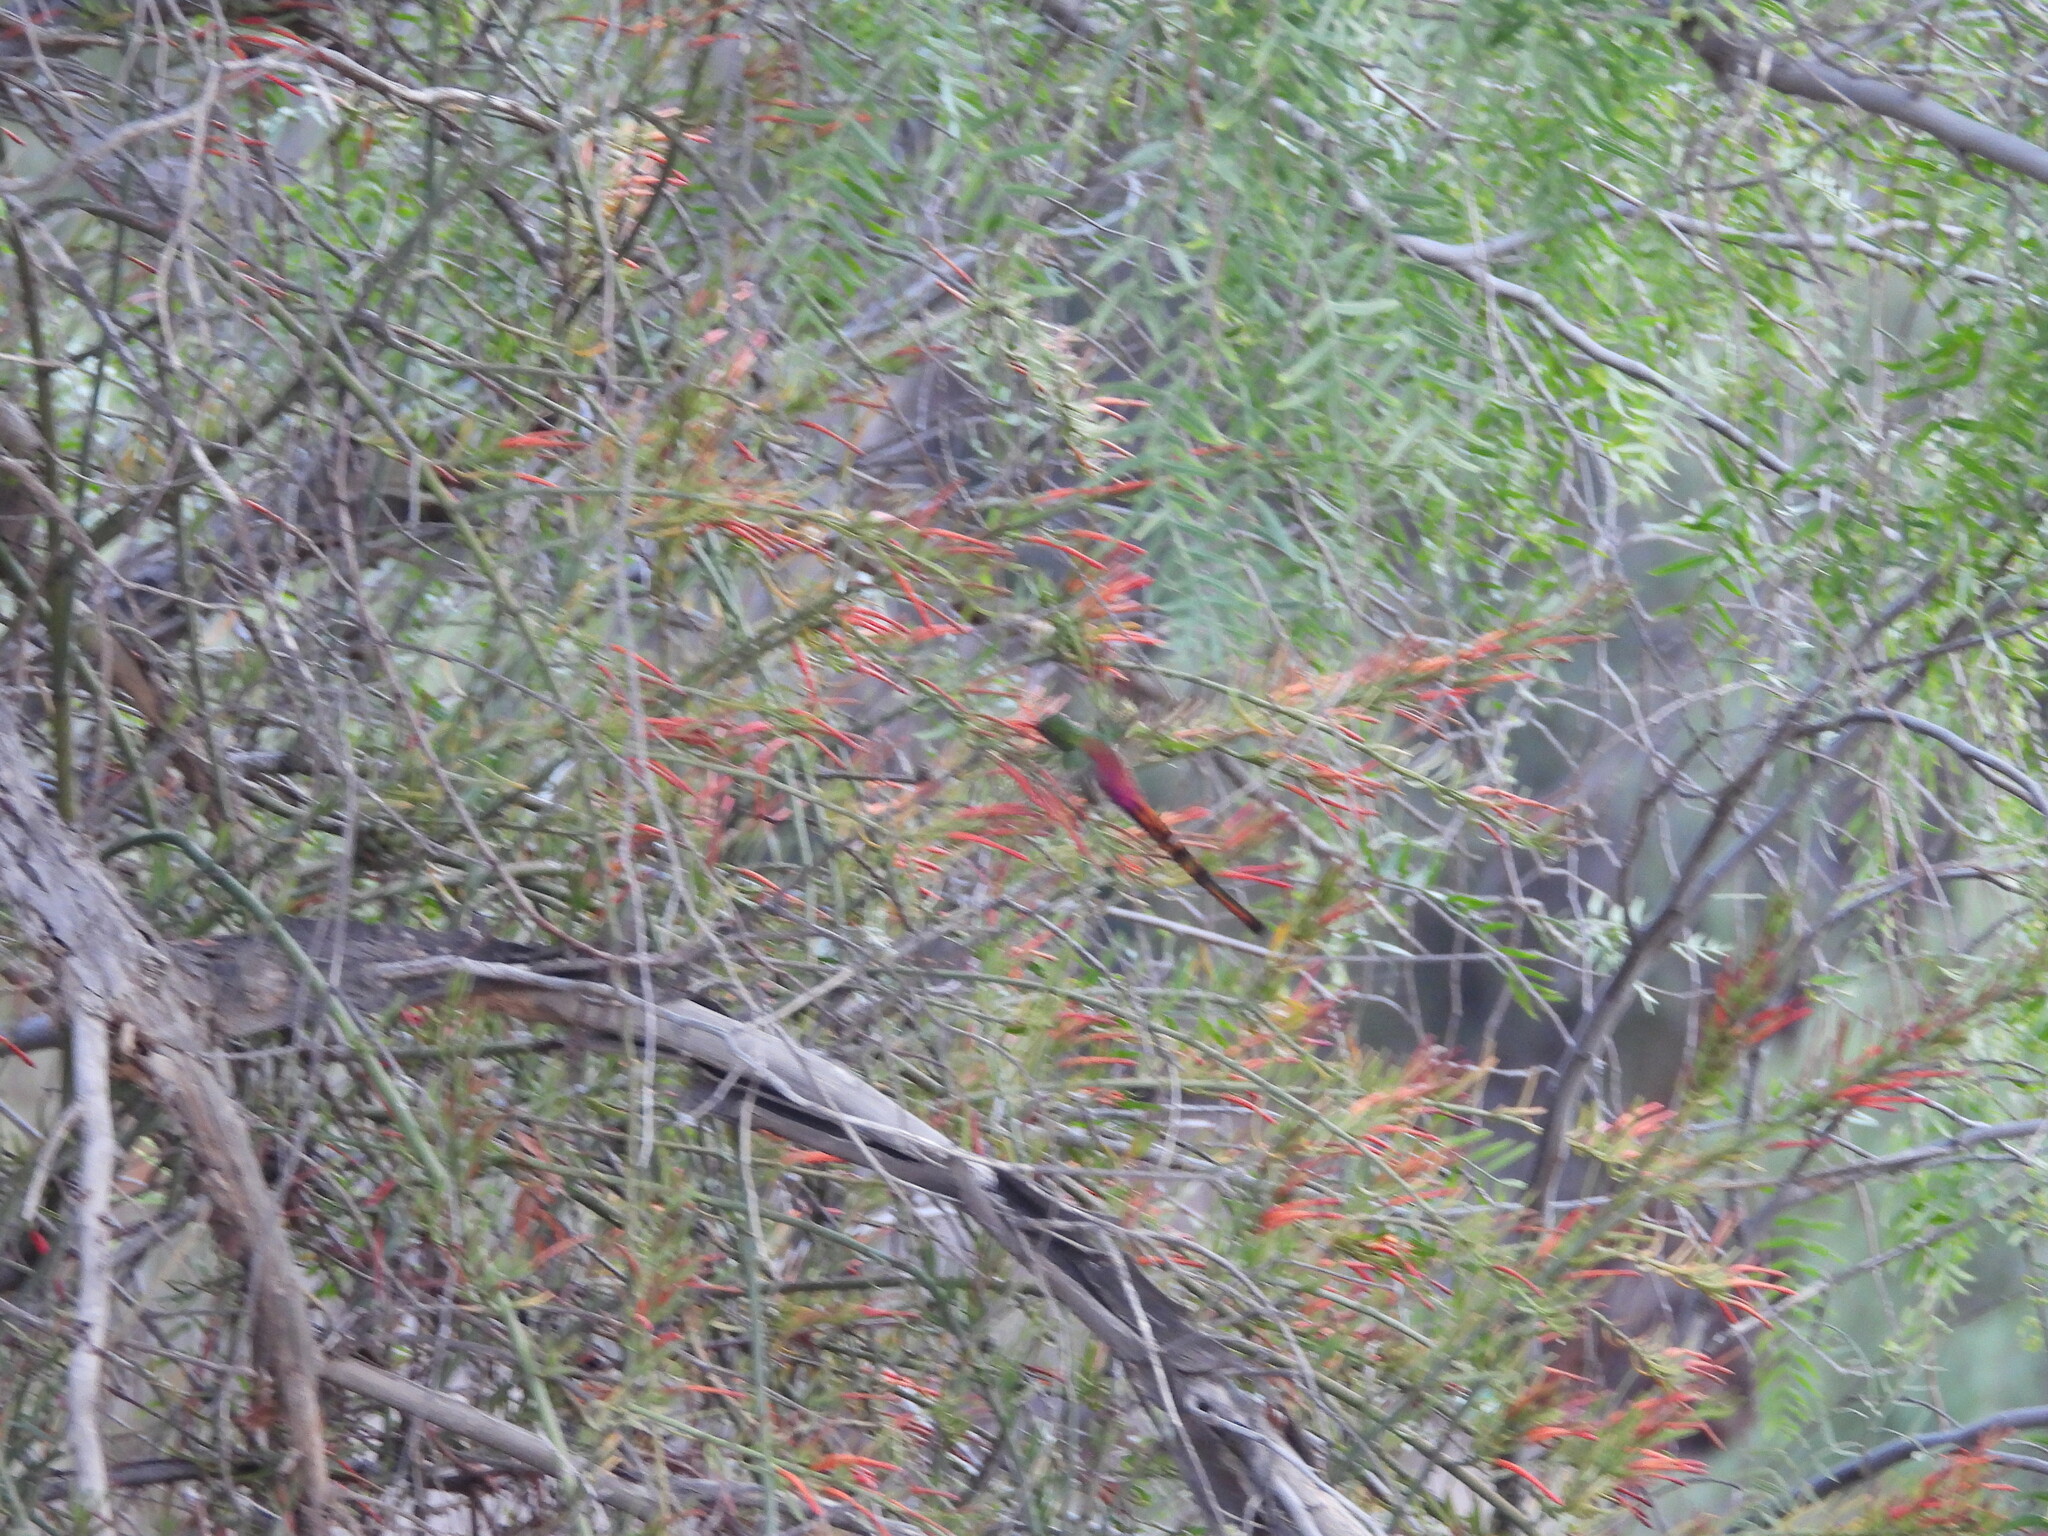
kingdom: Animalia
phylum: Chordata
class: Aves
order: Apodiformes
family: Trochilidae
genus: Sappho
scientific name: Sappho sparganurus
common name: Red-tailed comet
